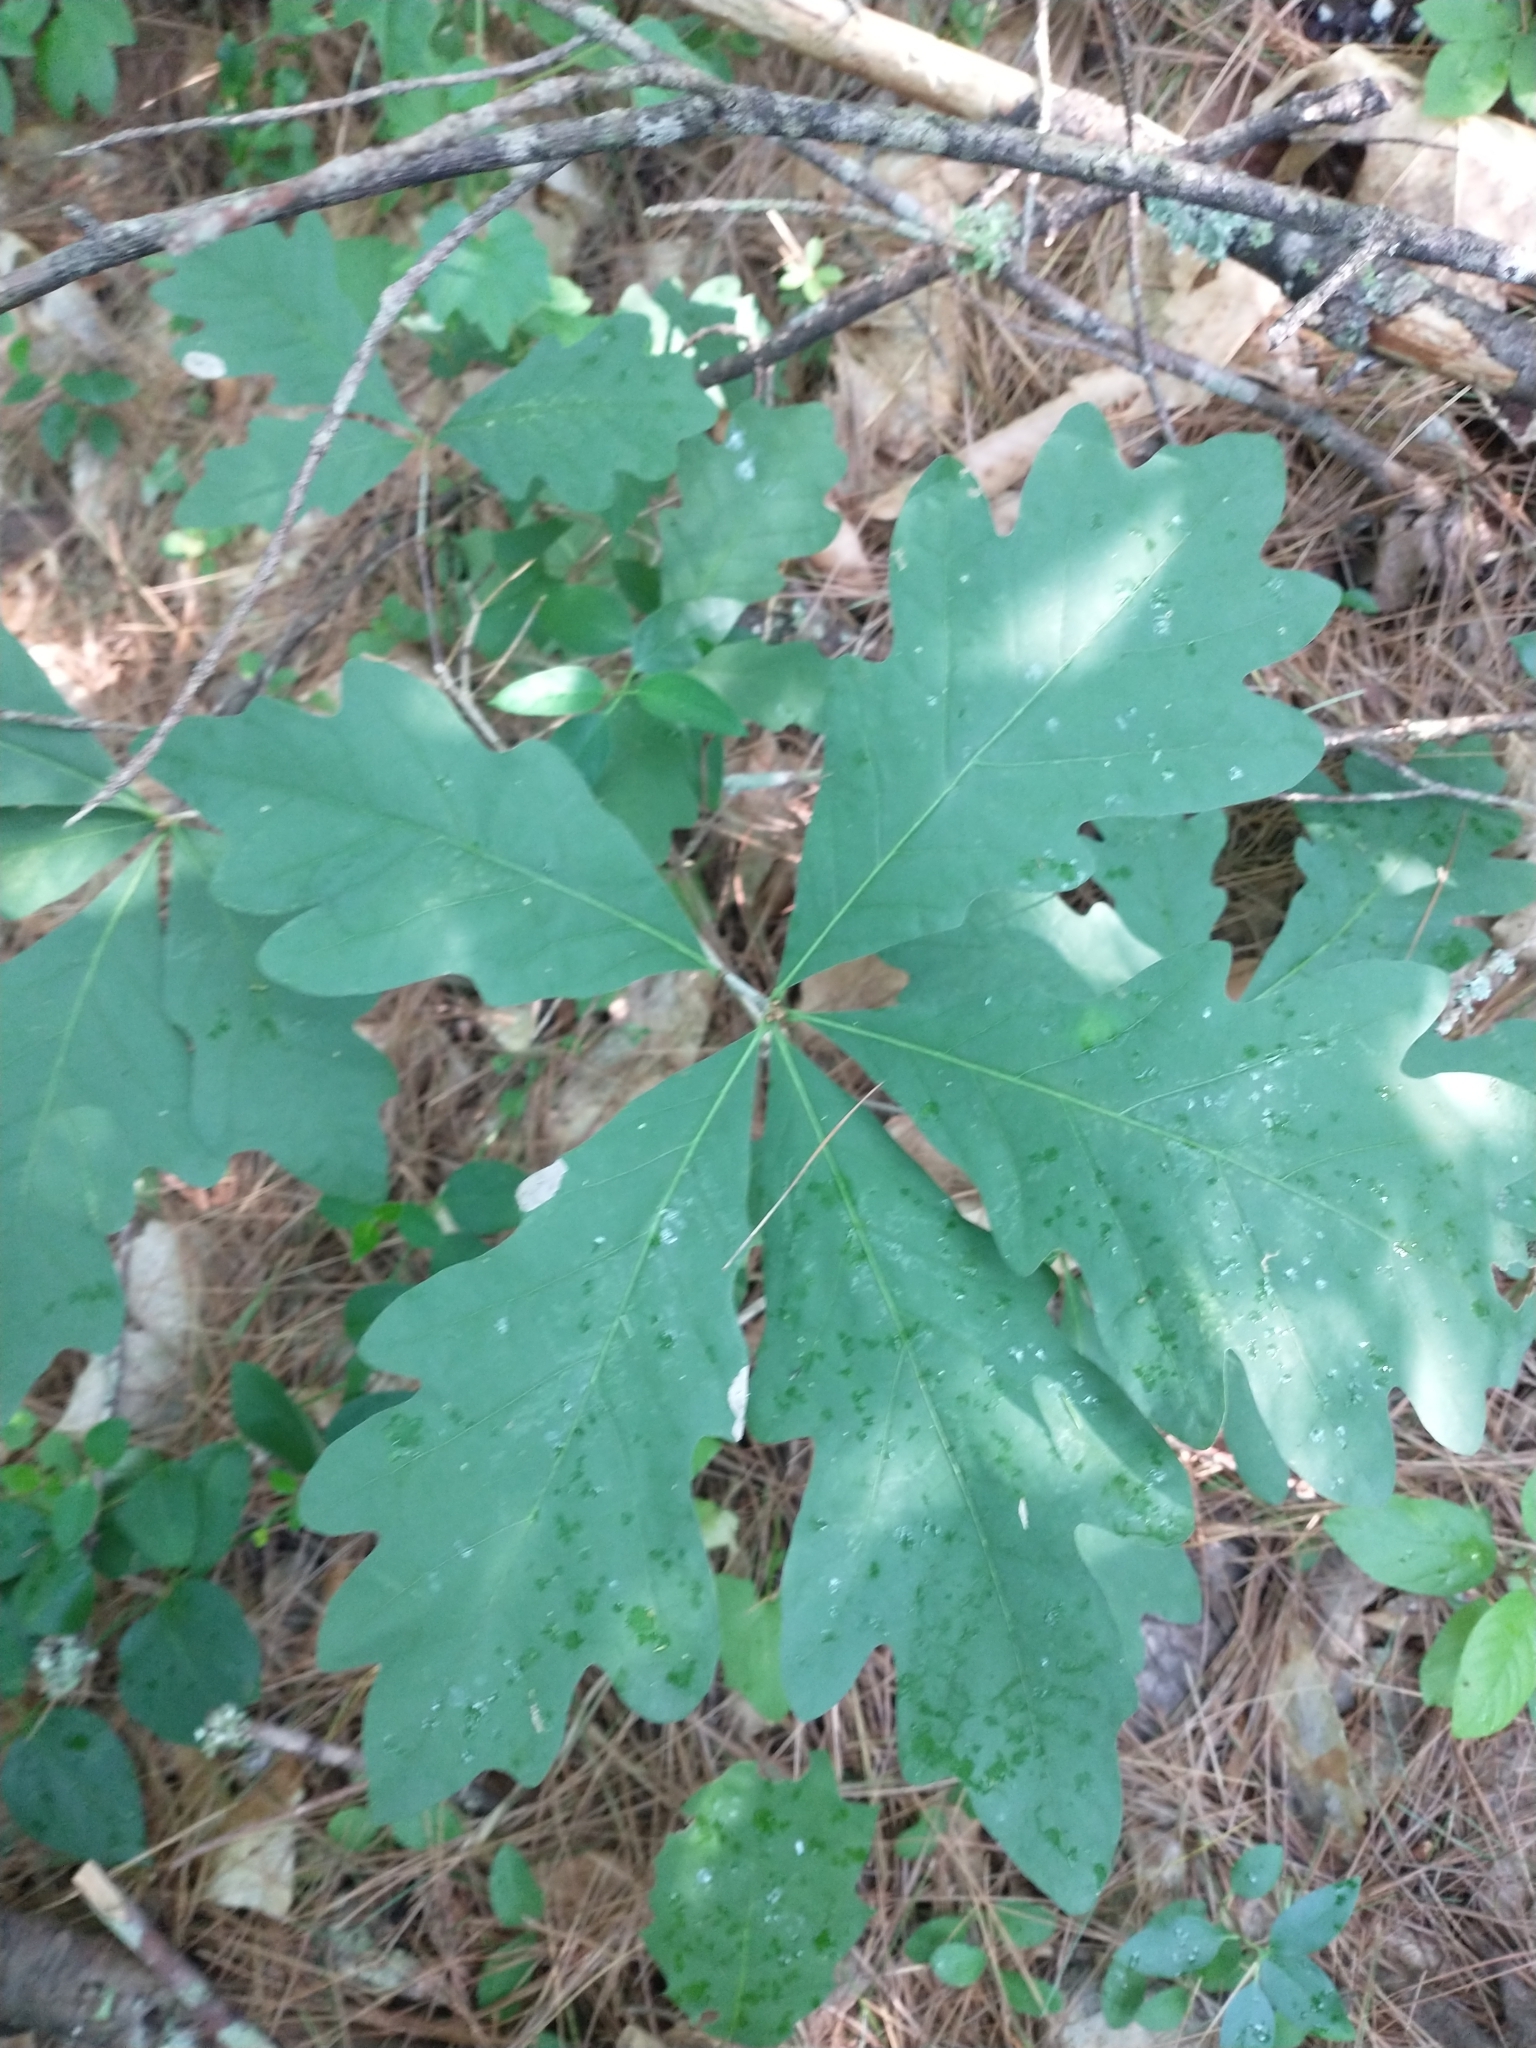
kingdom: Plantae
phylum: Tracheophyta
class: Magnoliopsida
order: Fagales
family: Fagaceae
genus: Quercus
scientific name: Quercus alba
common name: White oak
